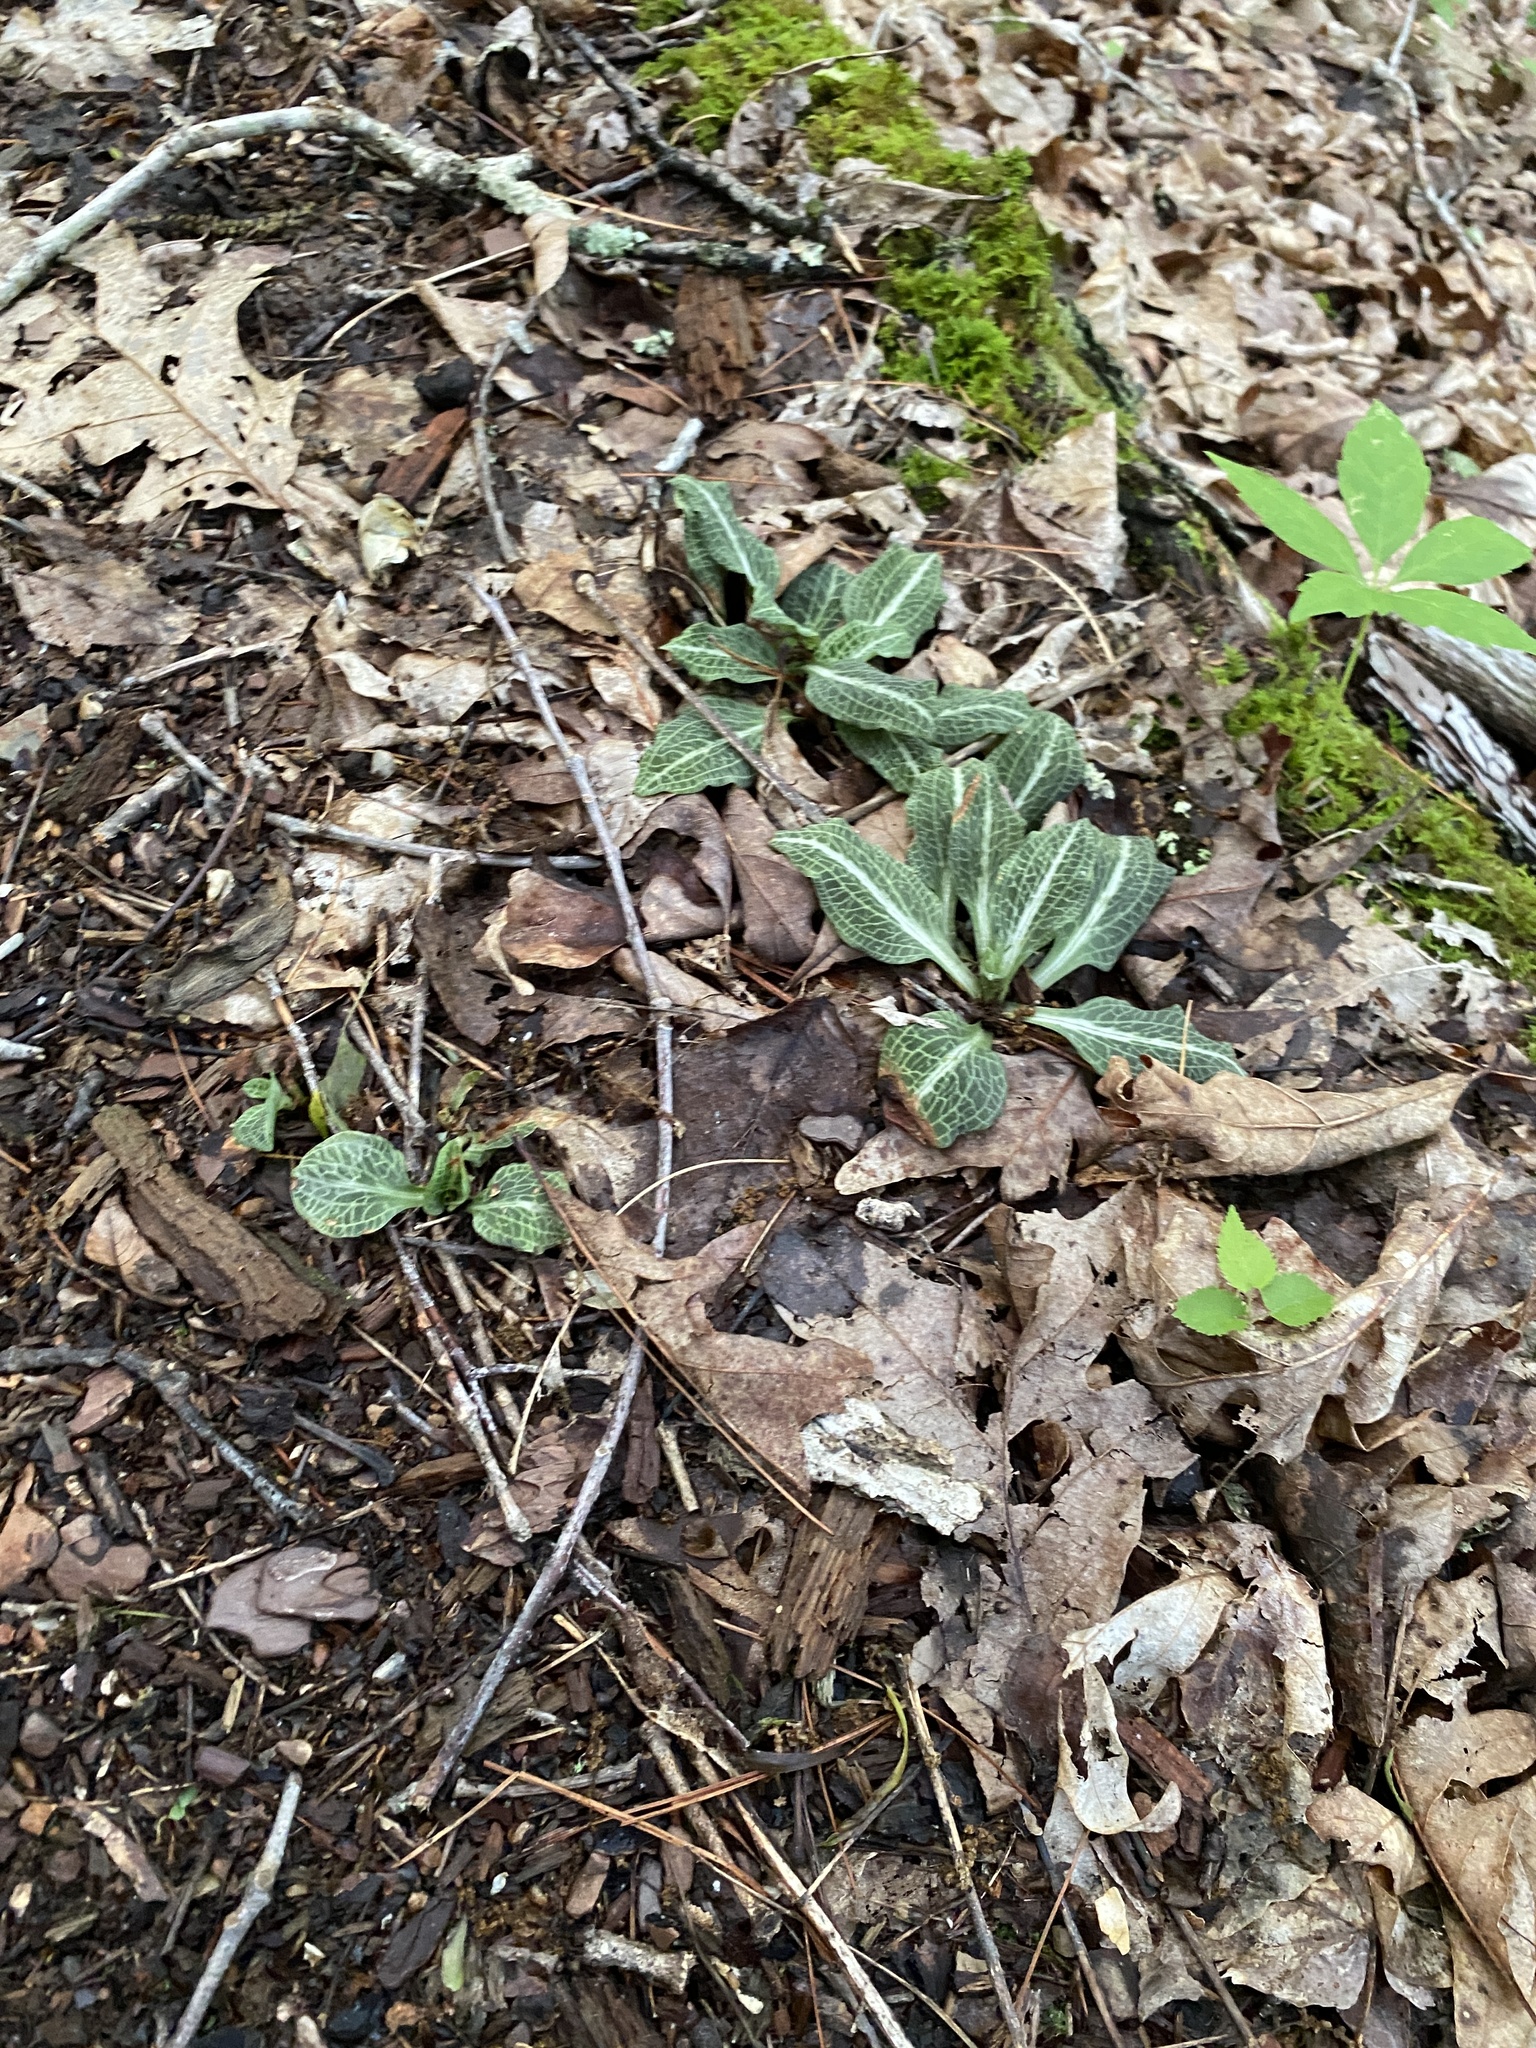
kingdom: Plantae
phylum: Tracheophyta
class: Liliopsida
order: Asparagales
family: Orchidaceae
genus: Goodyera
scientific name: Goodyera pubescens
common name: Downy rattlesnake-plantain
